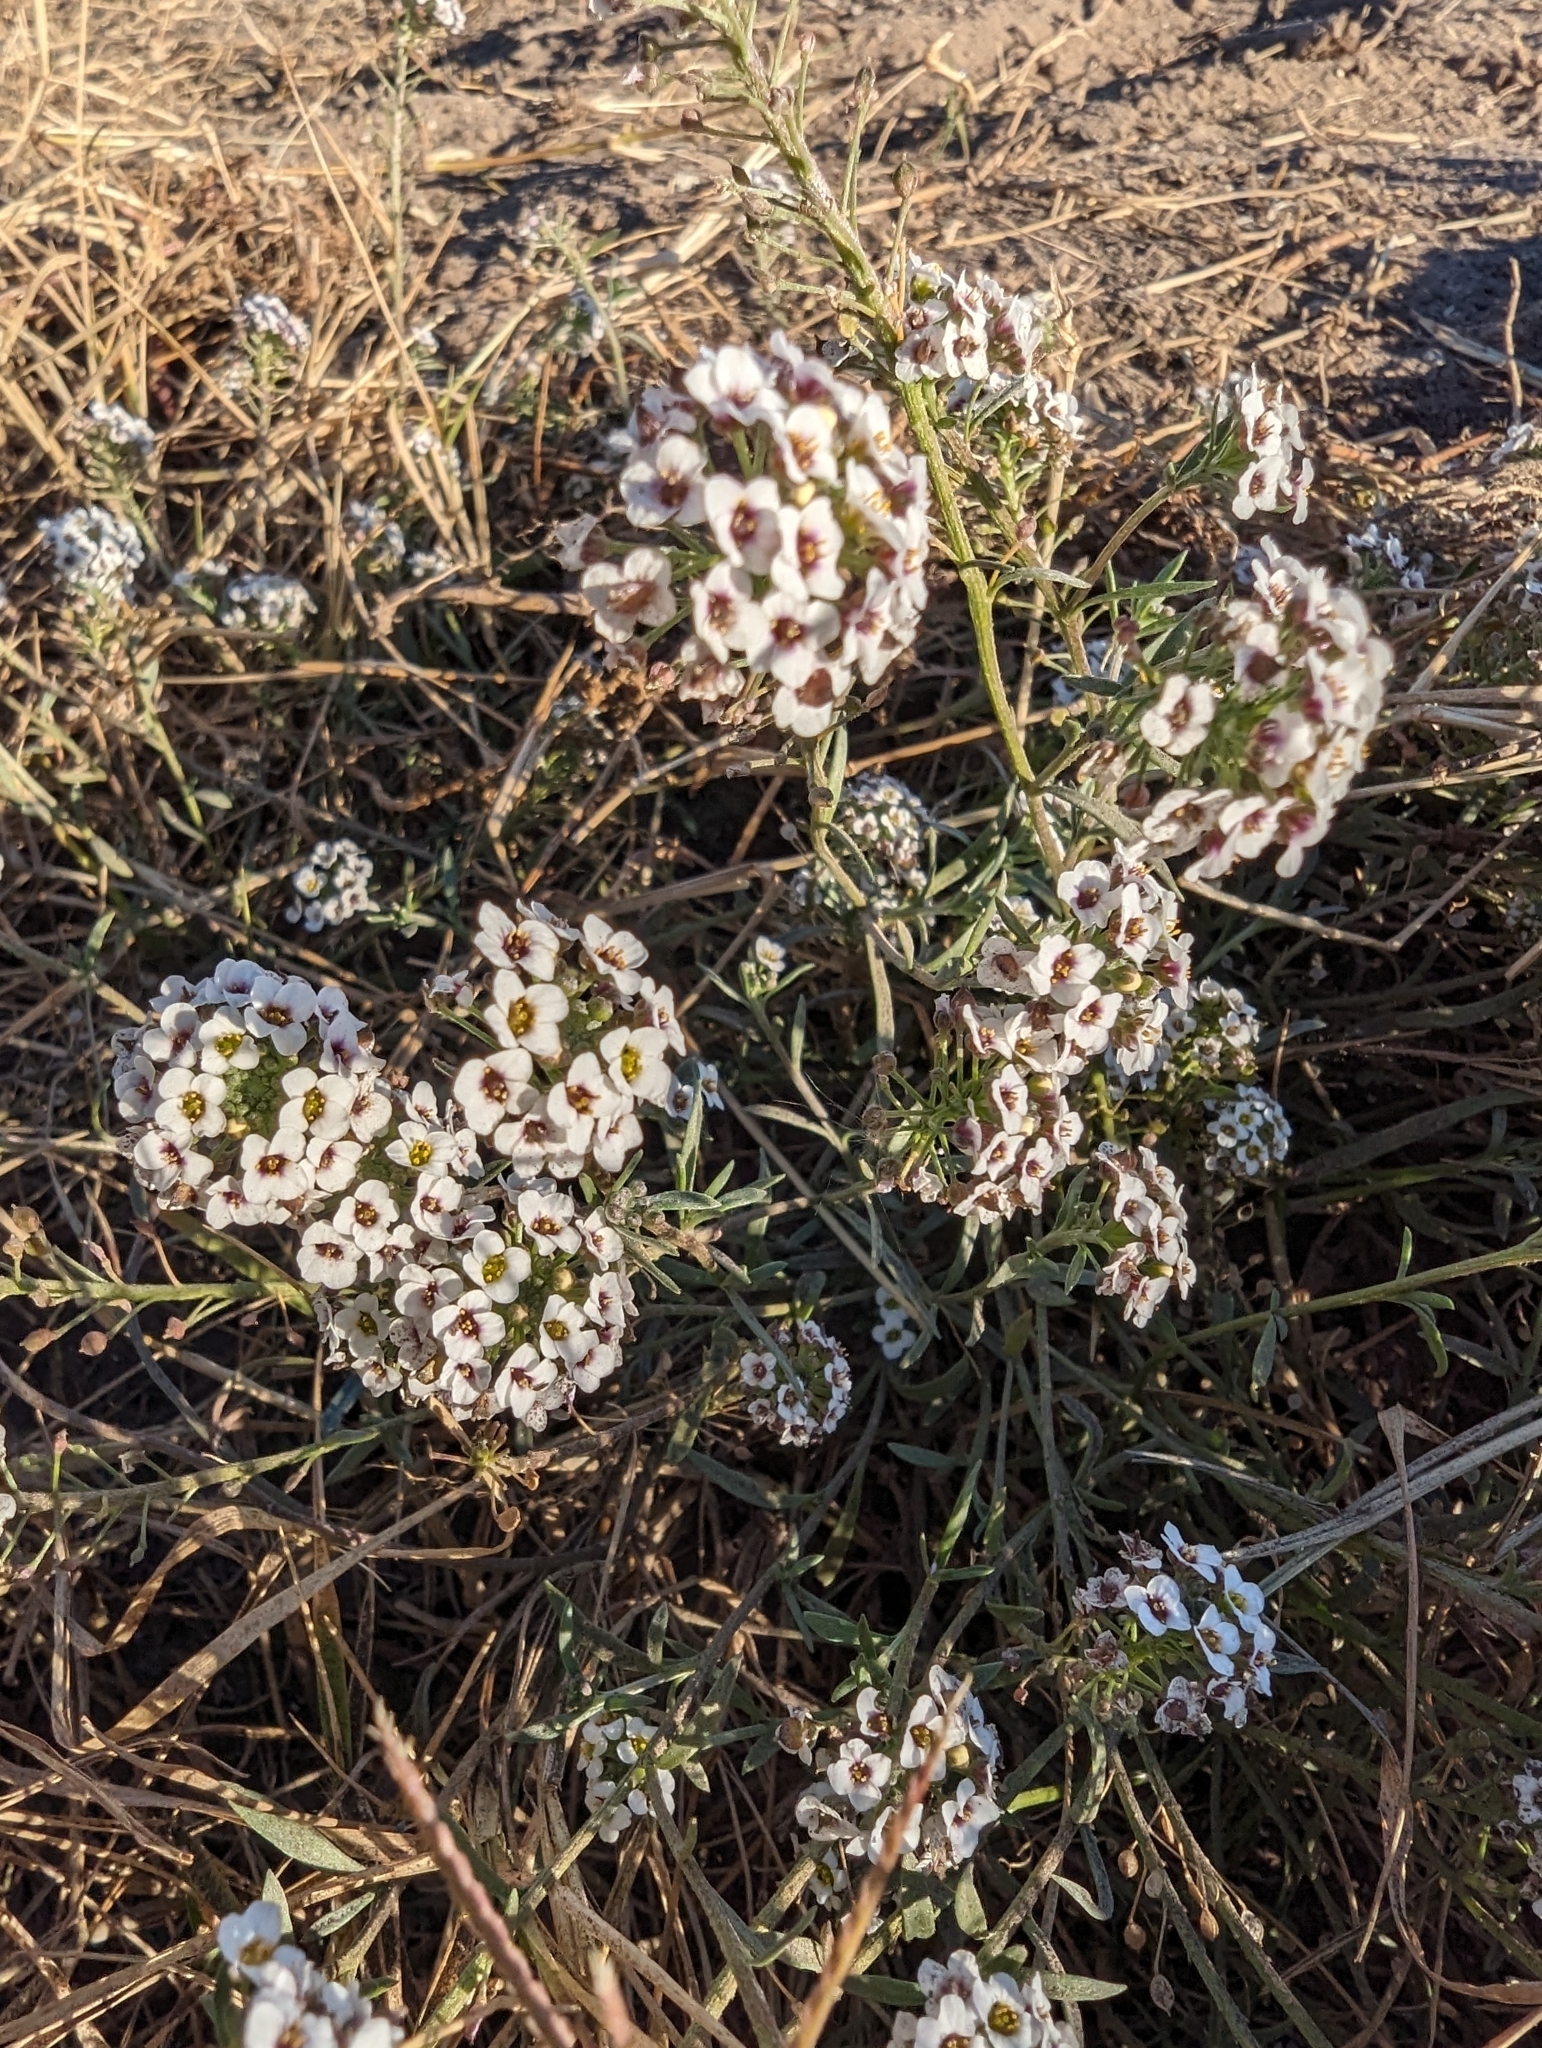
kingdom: Plantae
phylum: Tracheophyta
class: Magnoliopsida
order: Brassicales
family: Brassicaceae
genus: Lobularia
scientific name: Lobularia maritima
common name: Sweet alison
